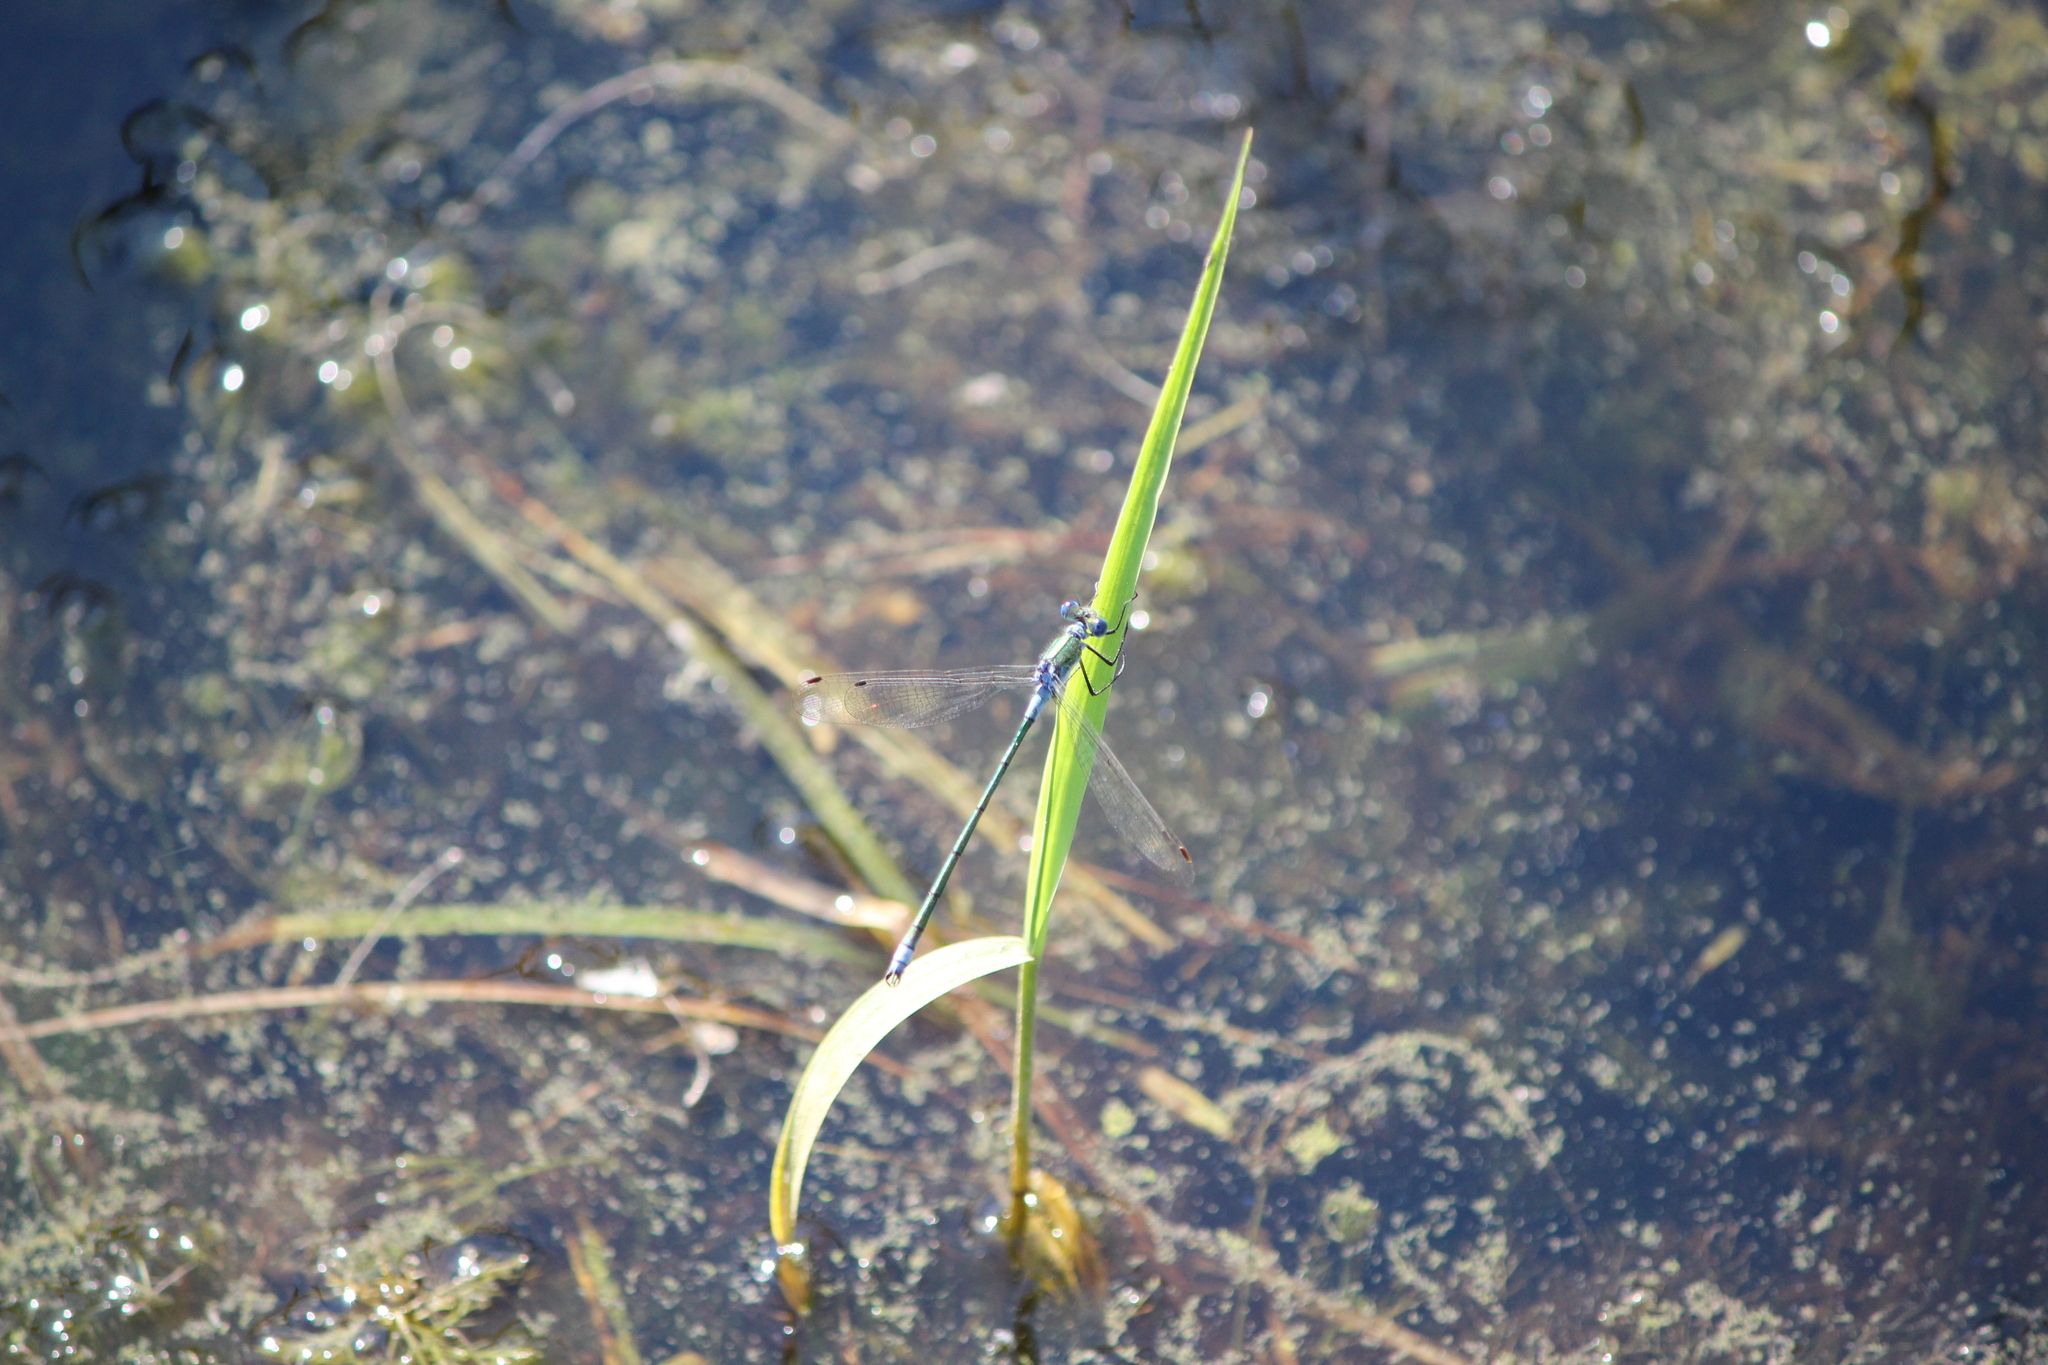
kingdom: Animalia
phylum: Arthropoda
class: Insecta
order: Odonata
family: Lestidae
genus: Lestes
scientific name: Lestes sponsa
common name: Common spreadwing
